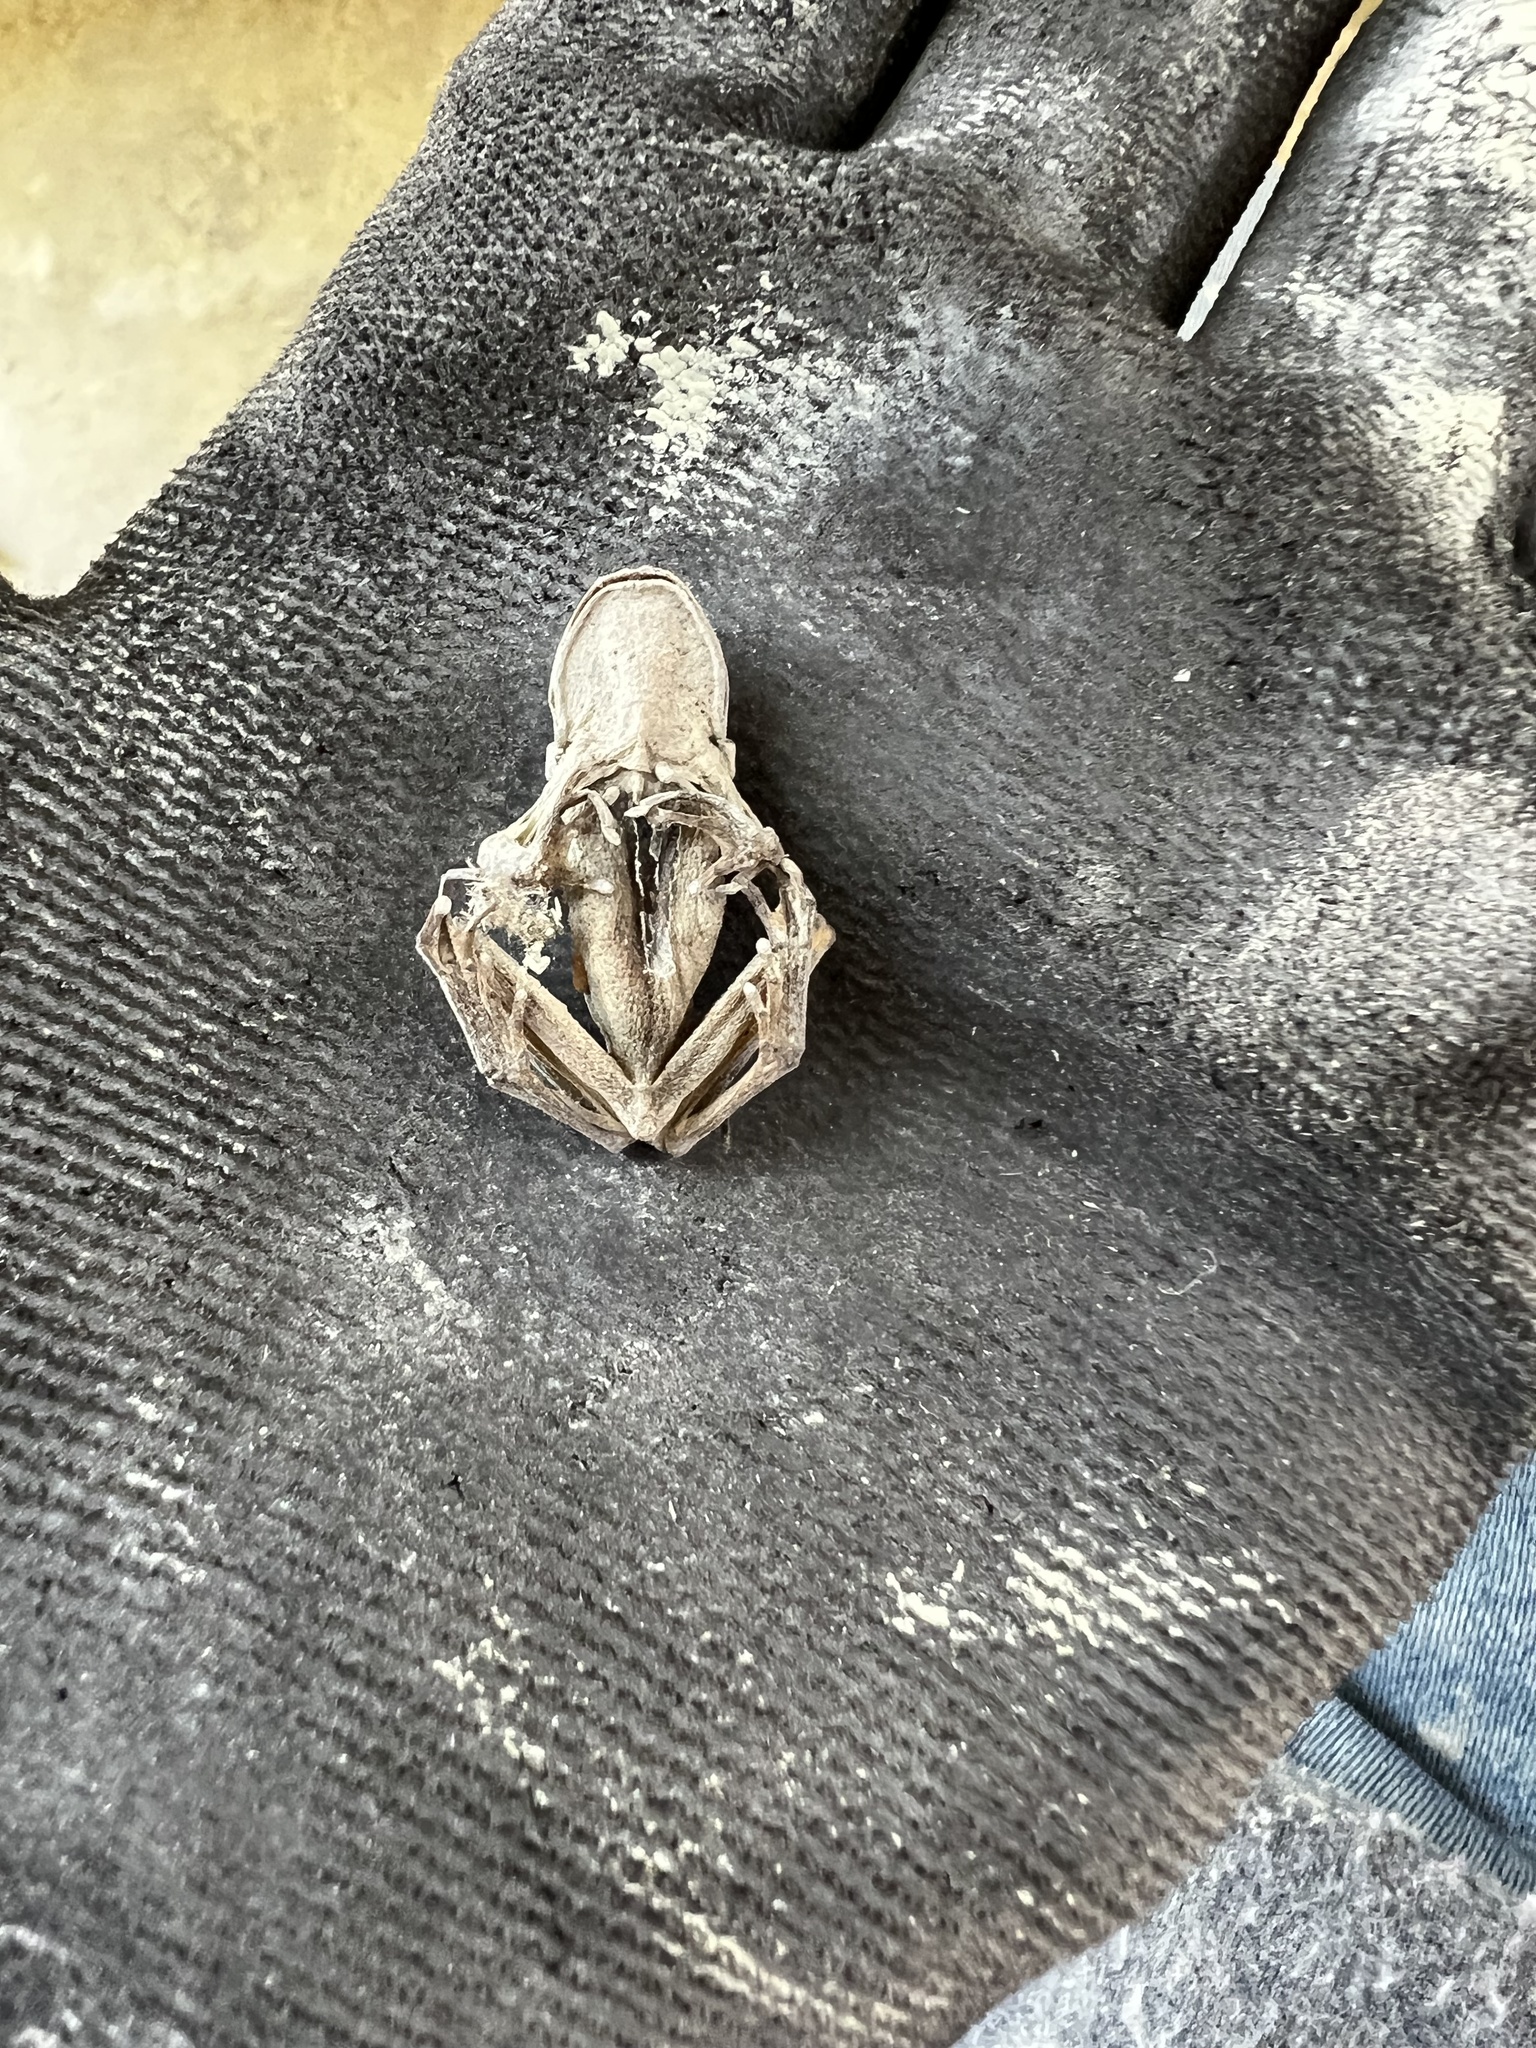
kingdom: Animalia
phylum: Chordata
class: Amphibia
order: Anura
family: Hylidae
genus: Pseudacris
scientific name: Pseudacris regilla
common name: Pacific chorus frog
